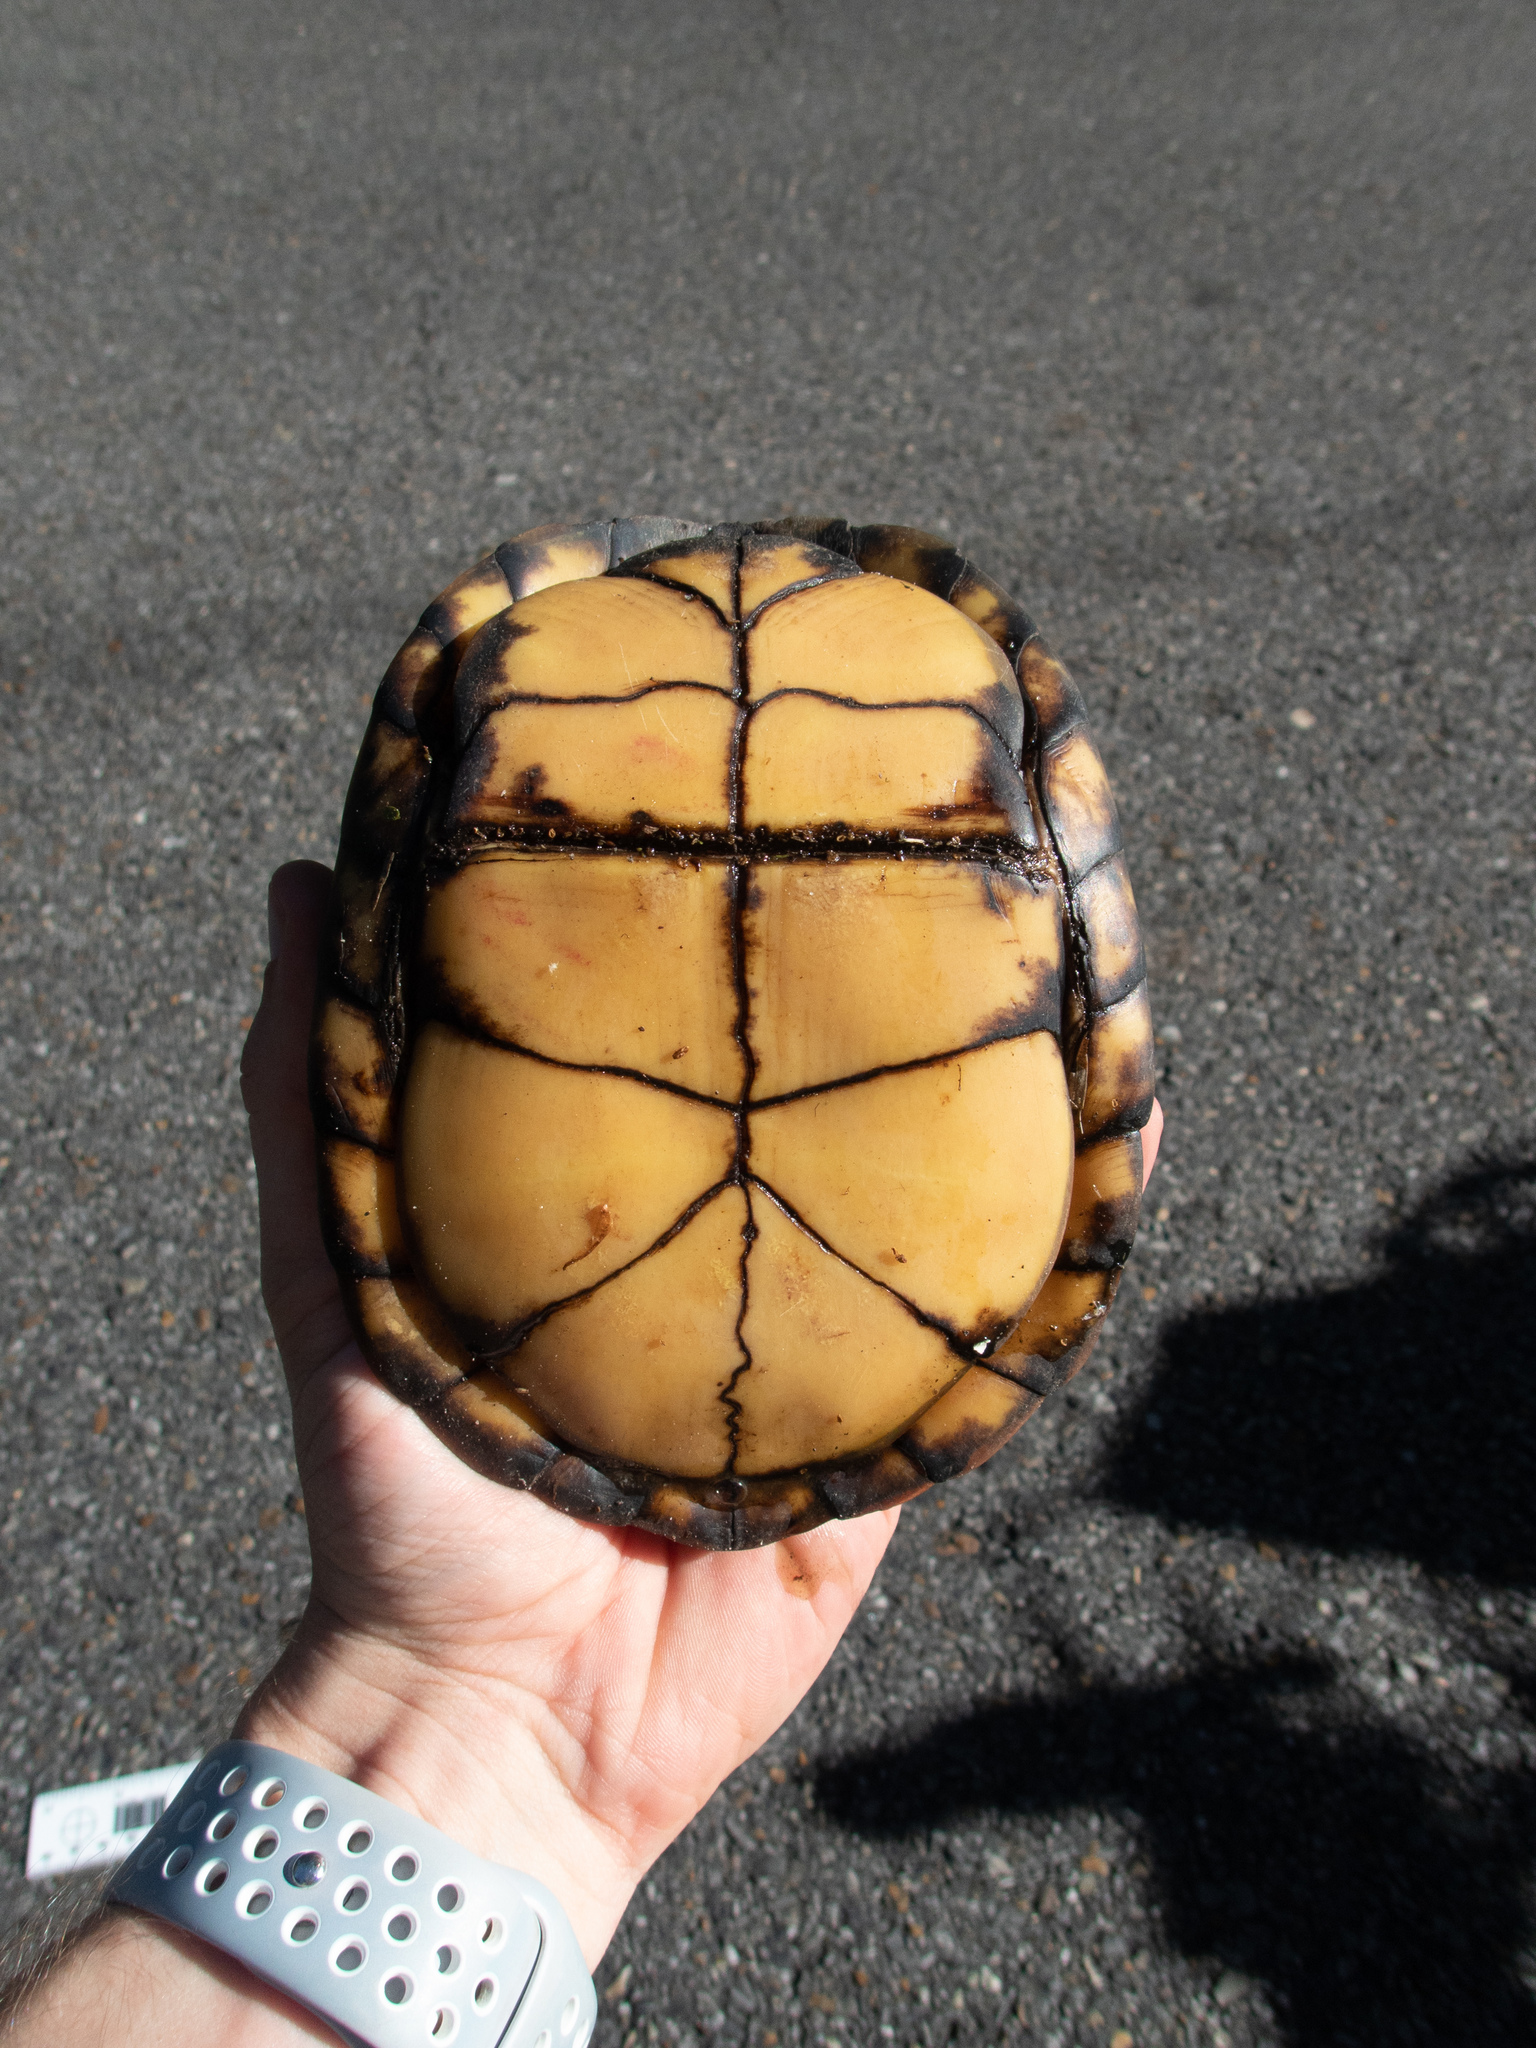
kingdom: Animalia
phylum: Chordata
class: Testudines
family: Emydidae
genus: Terrapene
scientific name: Terrapene carolina
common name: Common box turtle
